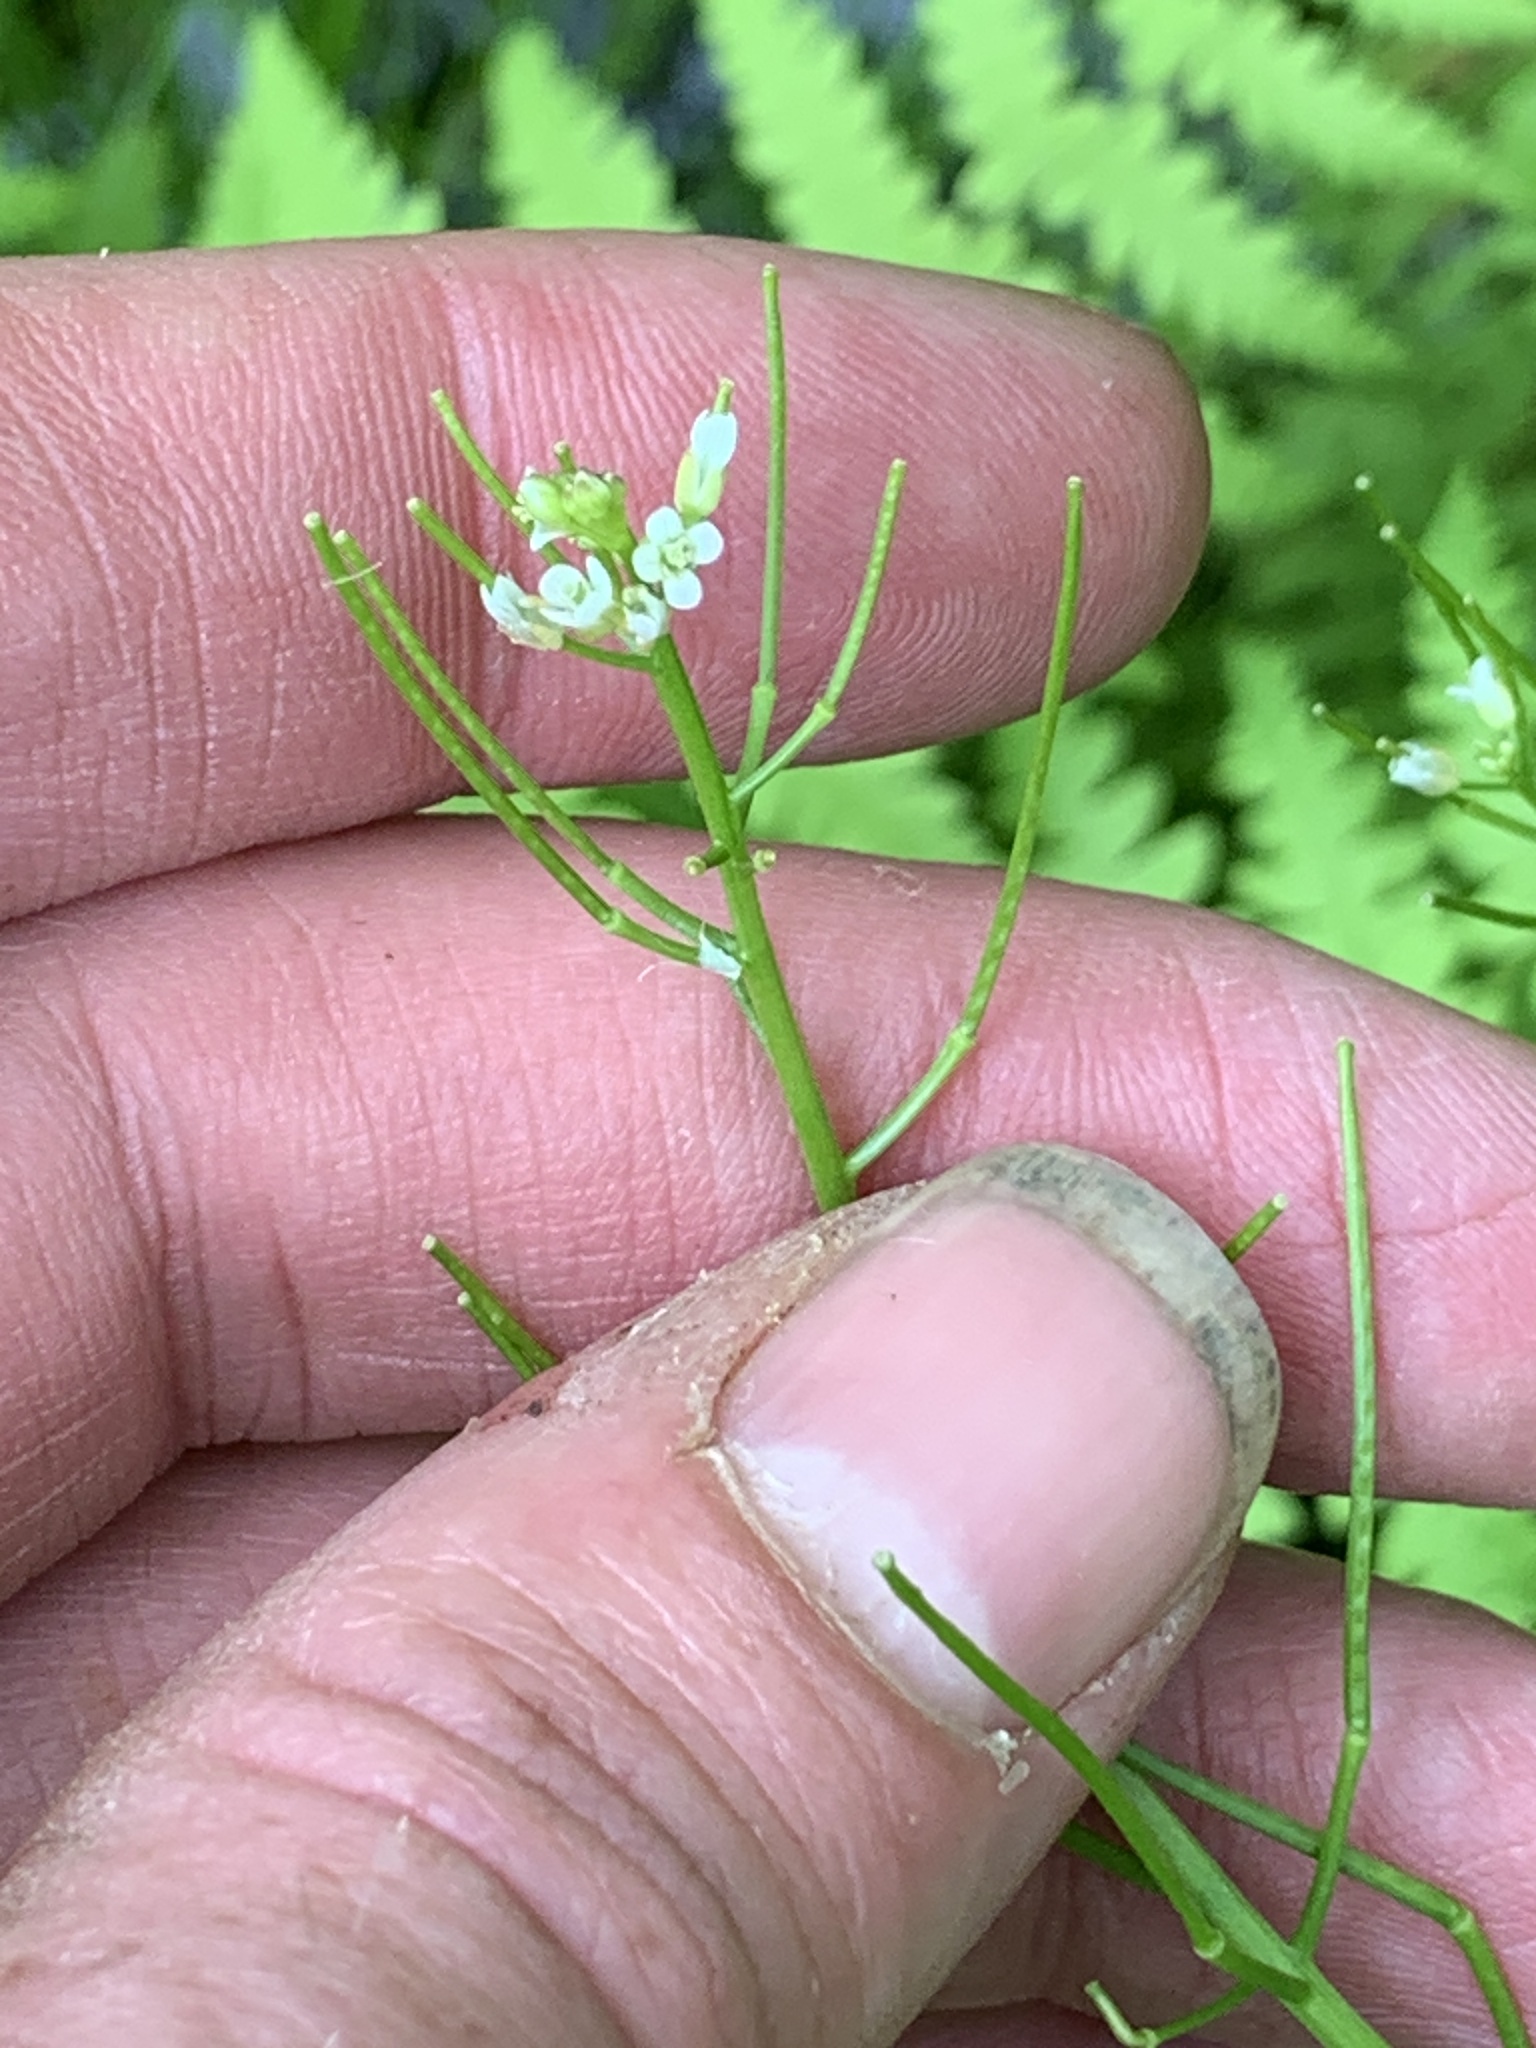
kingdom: Plantae
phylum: Tracheophyta
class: Magnoliopsida
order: Brassicales
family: Brassicaceae
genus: Cardamine
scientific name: Cardamine pensylvanica
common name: Pennsylvania bittercress
